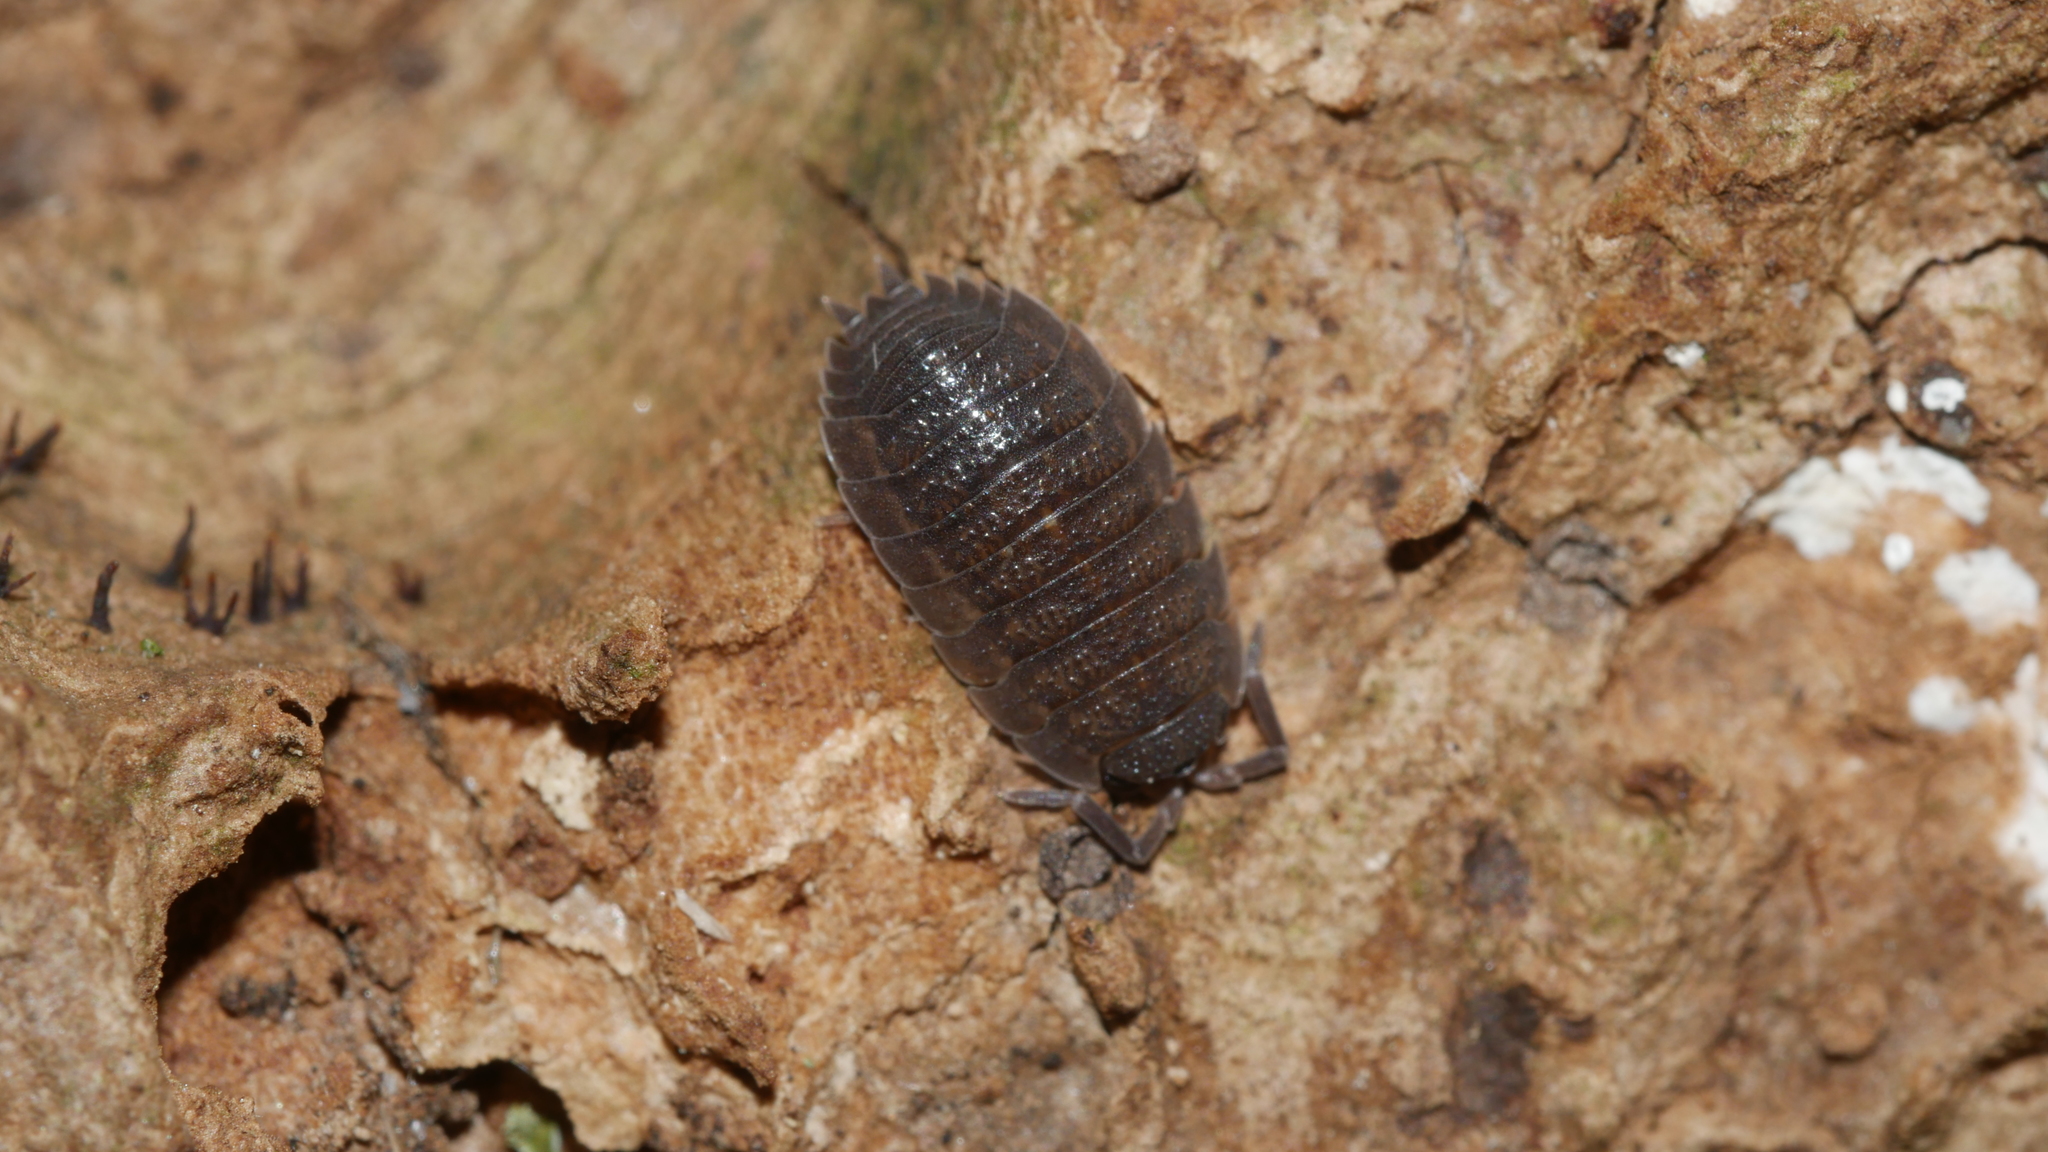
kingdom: Animalia
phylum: Arthropoda
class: Malacostraca
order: Isopoda
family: Porcellionidae
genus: Porcellio
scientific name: Porcellio scaber
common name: Common rough woodlouse
